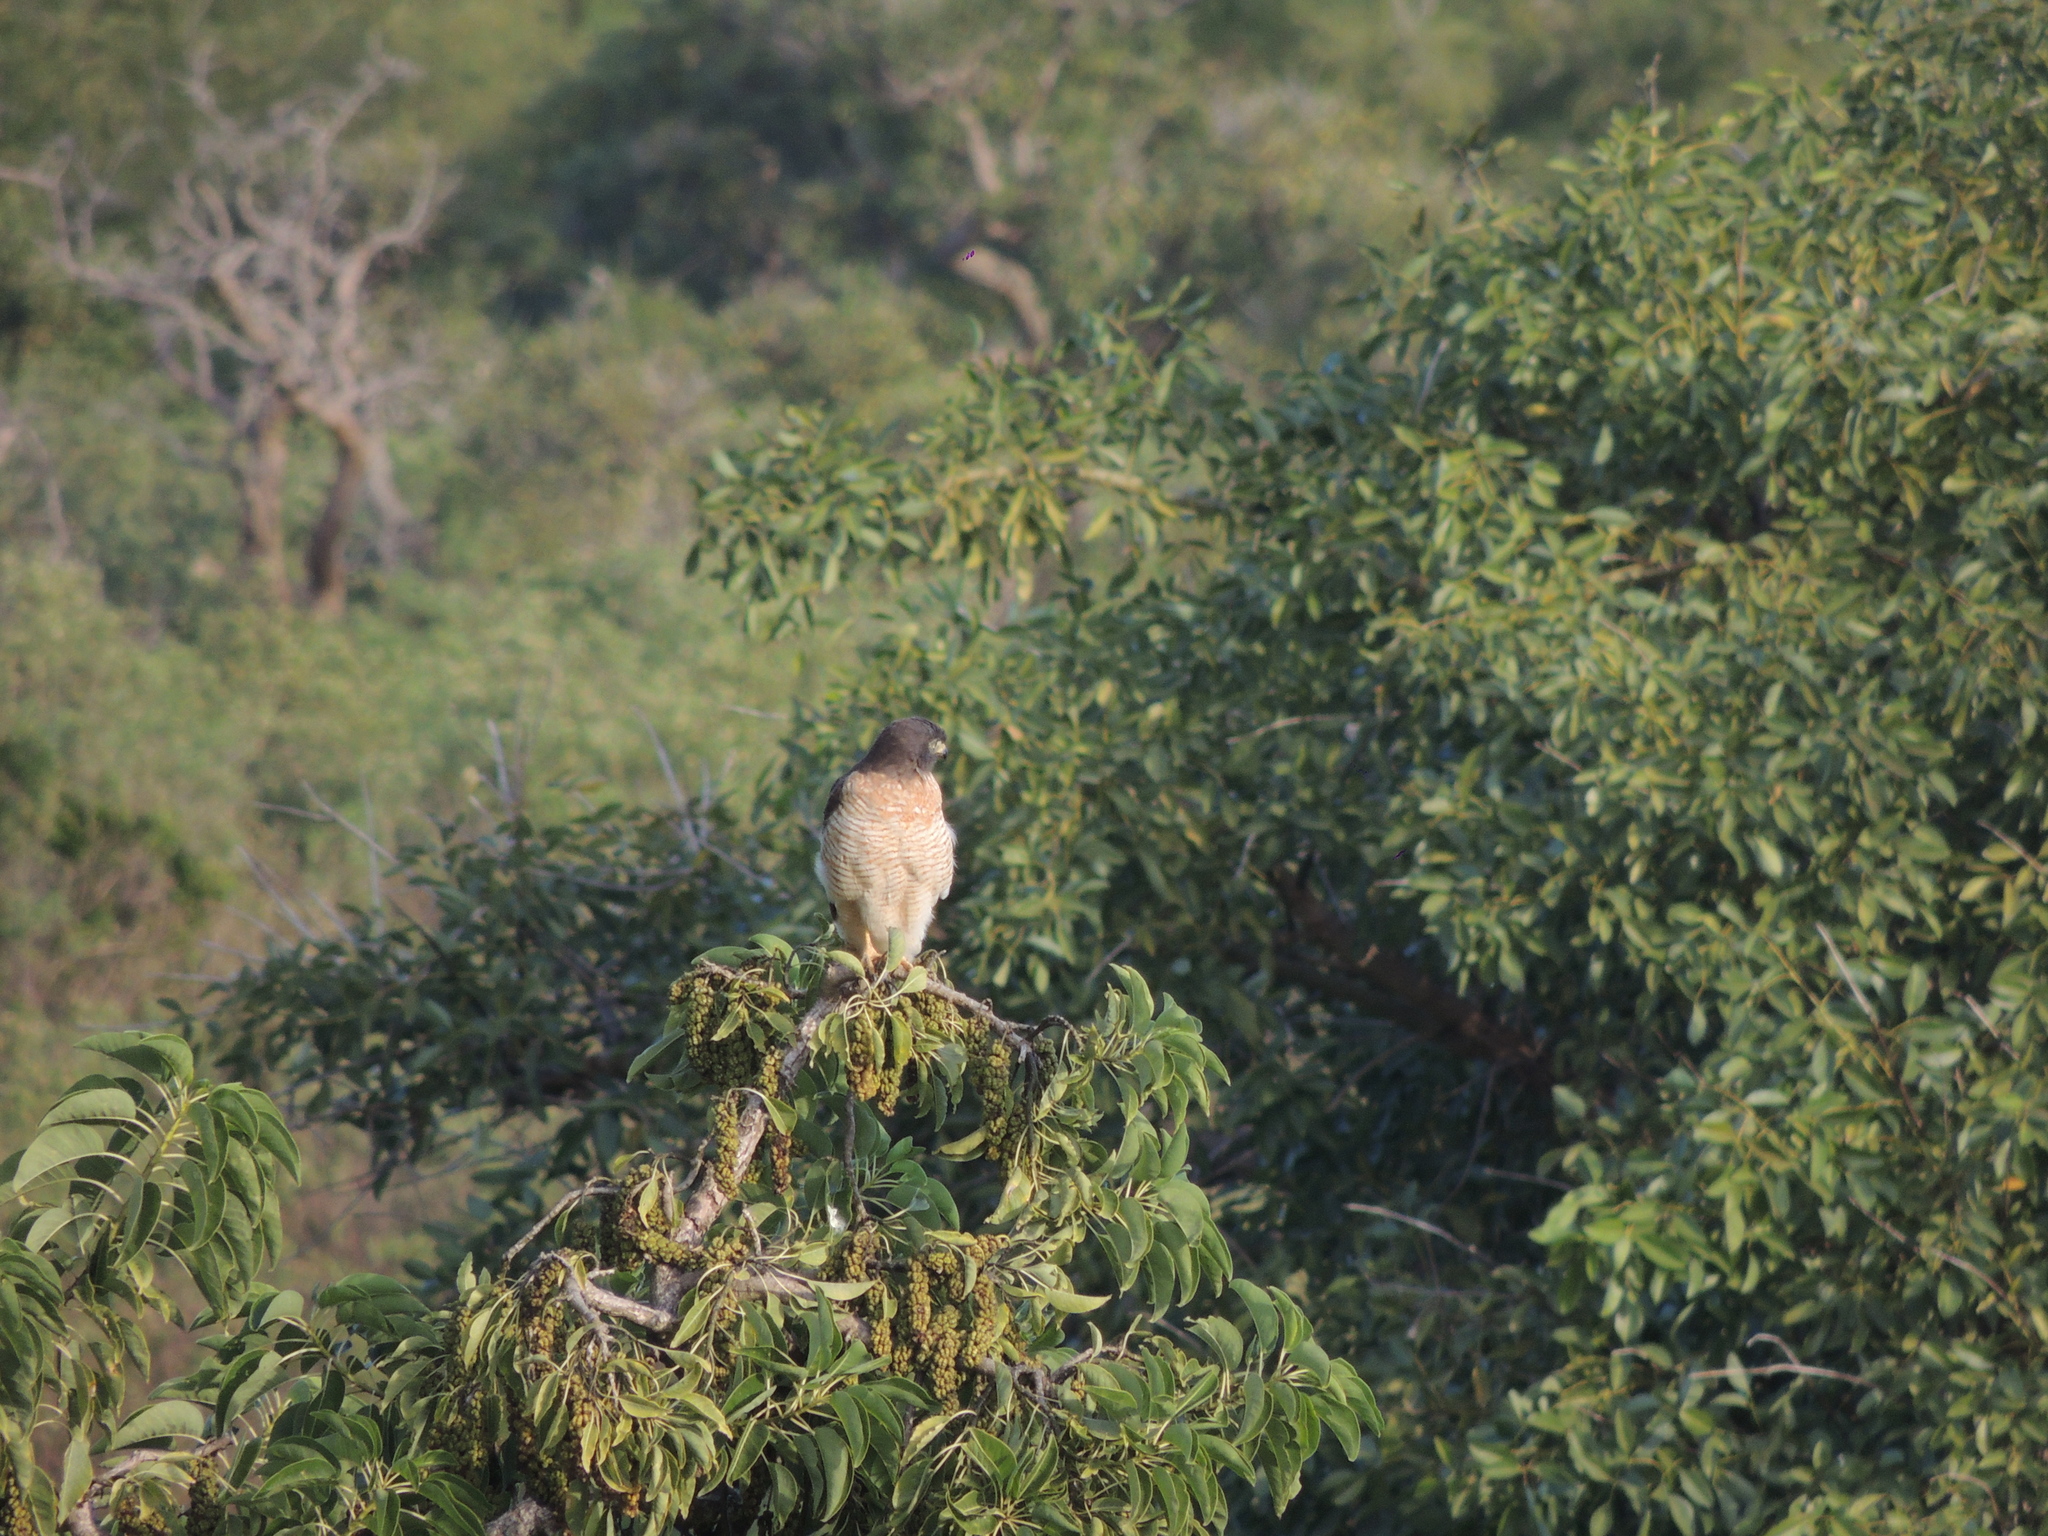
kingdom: Animalia
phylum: Chordata
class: Aves
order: Accipitriformes
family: Accipitridae
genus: Rupornis
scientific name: Rupornis magnirostris
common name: Roadside hawk
